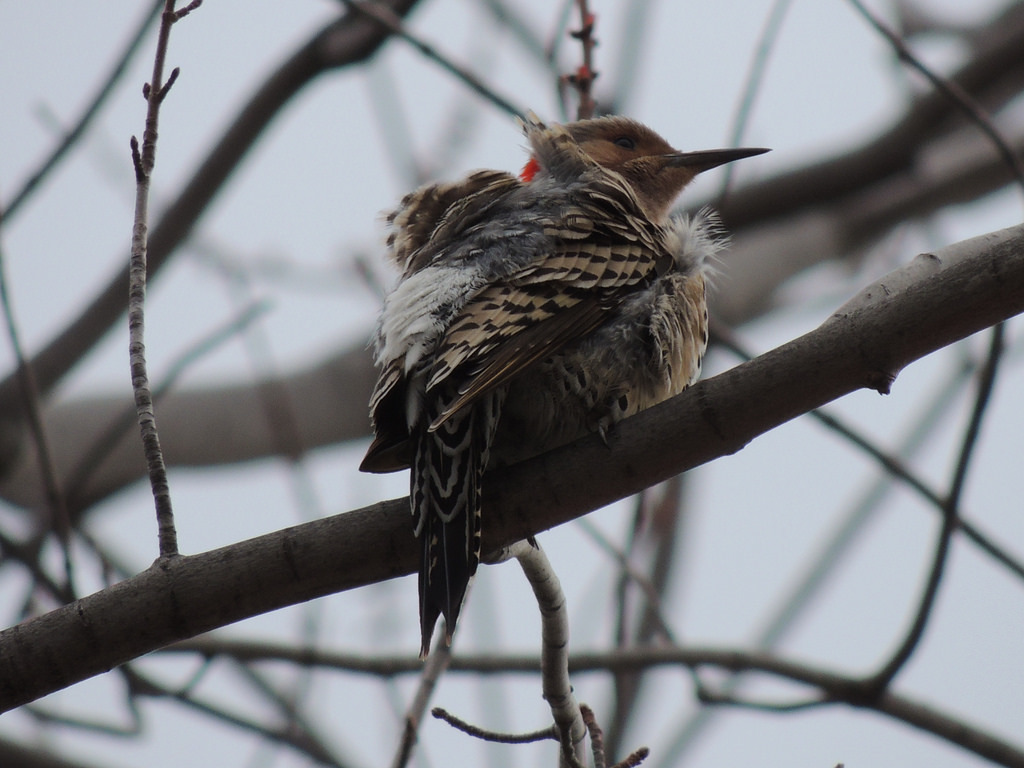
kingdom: Animalia
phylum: Chordata
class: Aves
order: Piciformes
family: Picidae
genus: Colaptes
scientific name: Colaptes auratus
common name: Northern flicker
